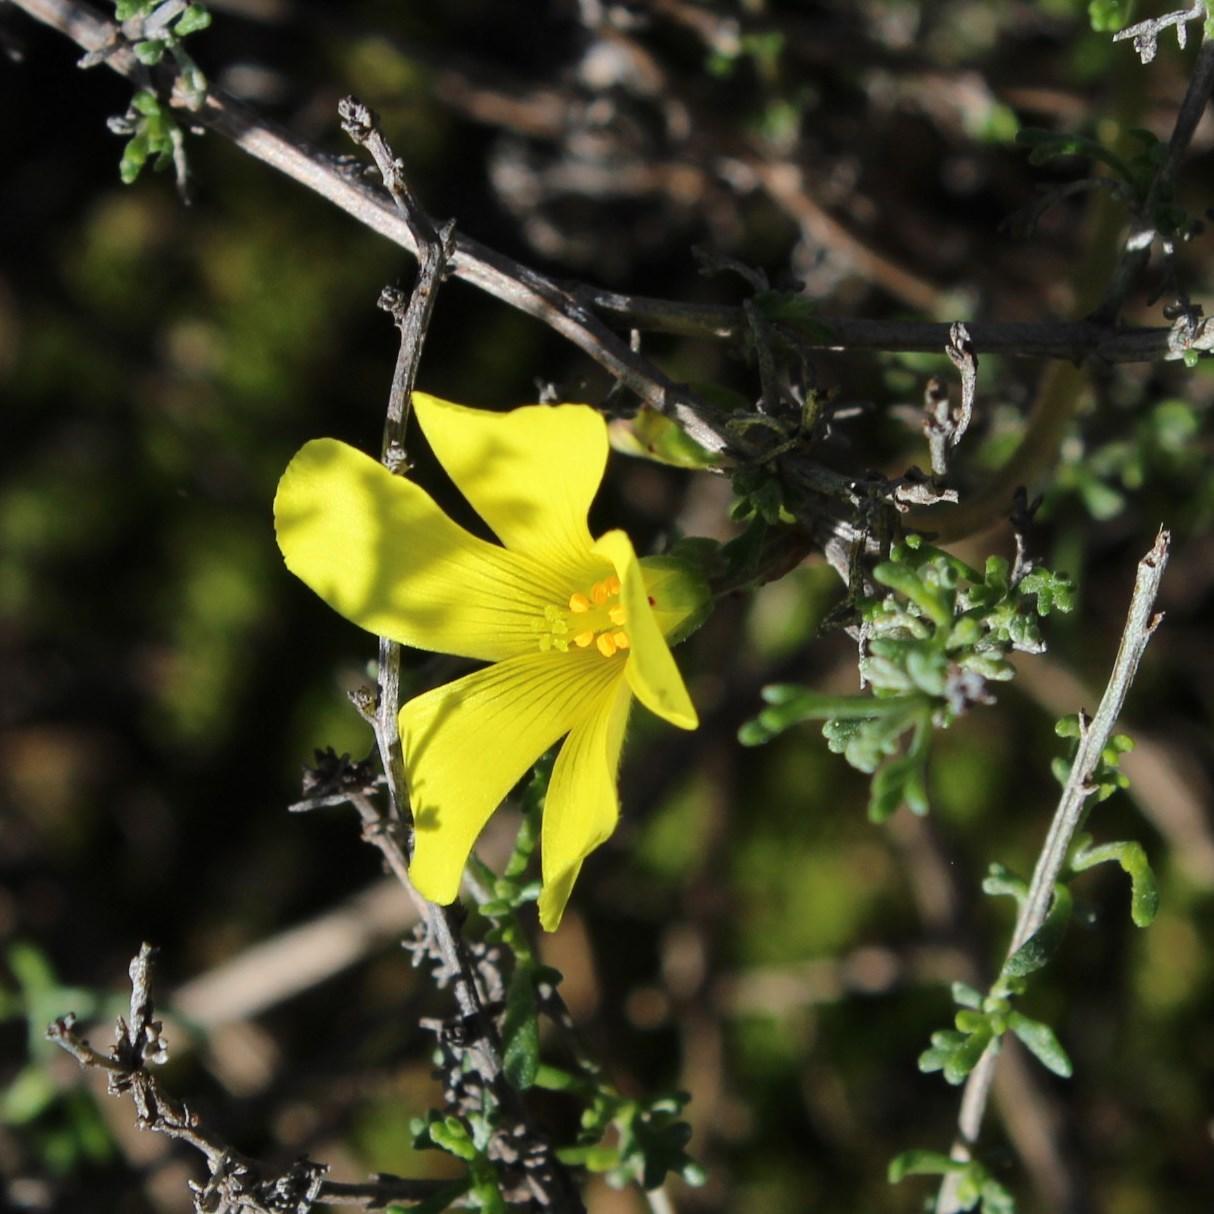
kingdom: Plantae
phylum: Tracheophyta
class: Magnoliopsida
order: Oxalidales
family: Oxalidaceae
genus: Oxalis
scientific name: Oxalis pes-caprae
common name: Bermuda-buttercup
